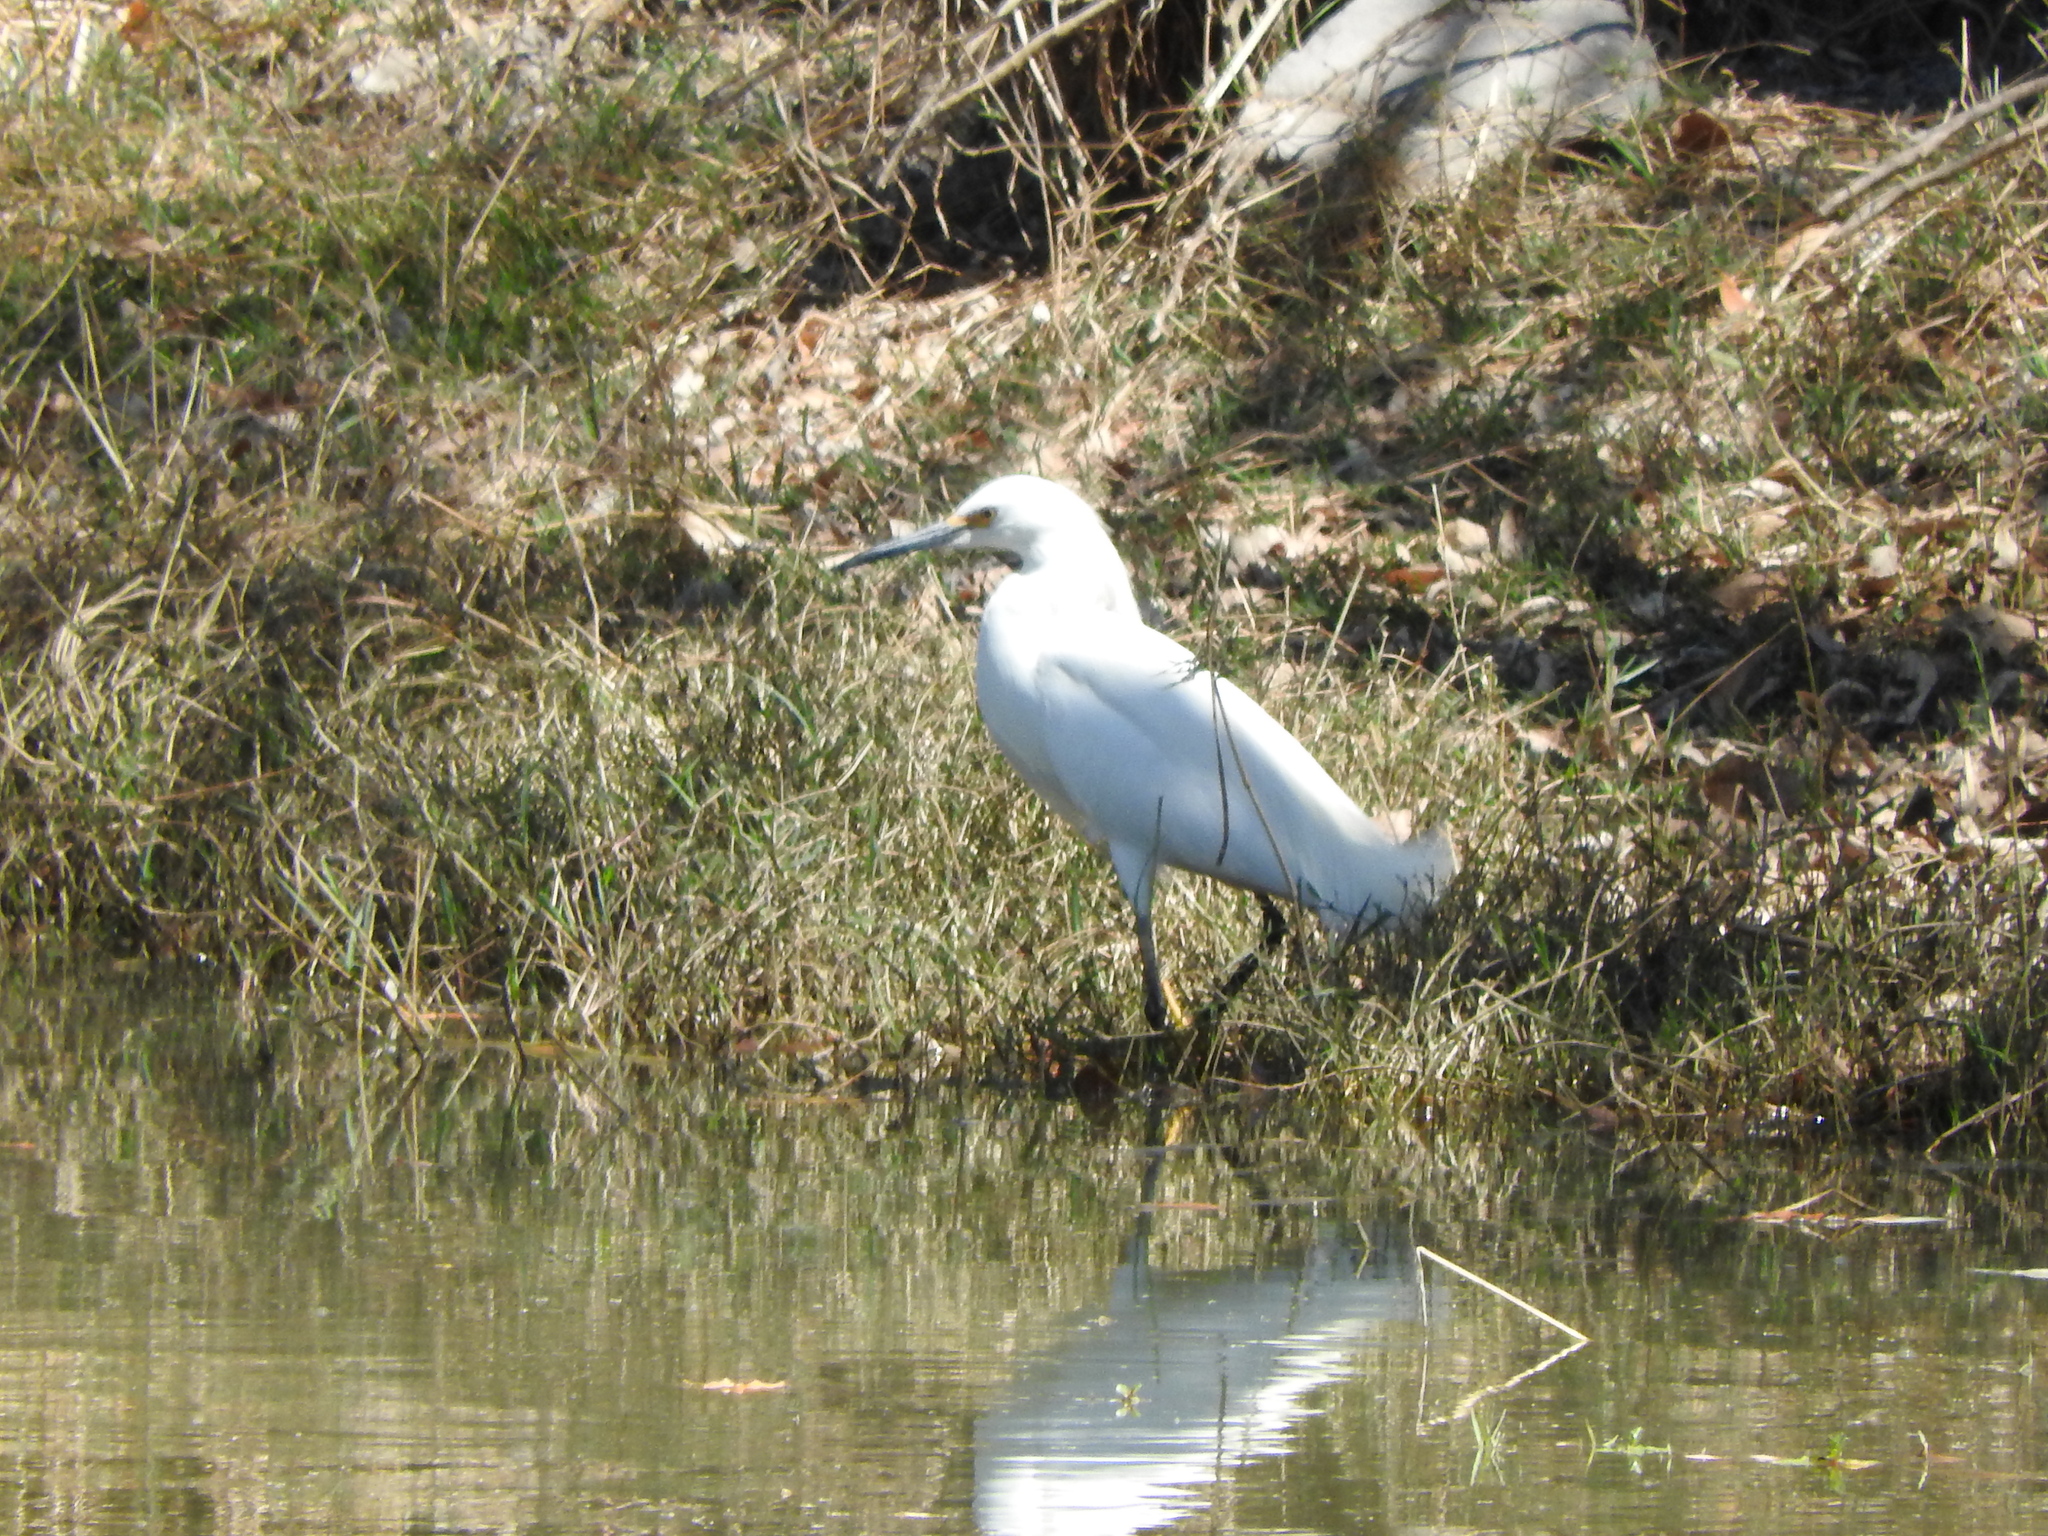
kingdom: Animalia
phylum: Chordata
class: Aves
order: Pelecaniformes
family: Ardeidae
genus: Egretta
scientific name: Egretta thula
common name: Snowy egret
